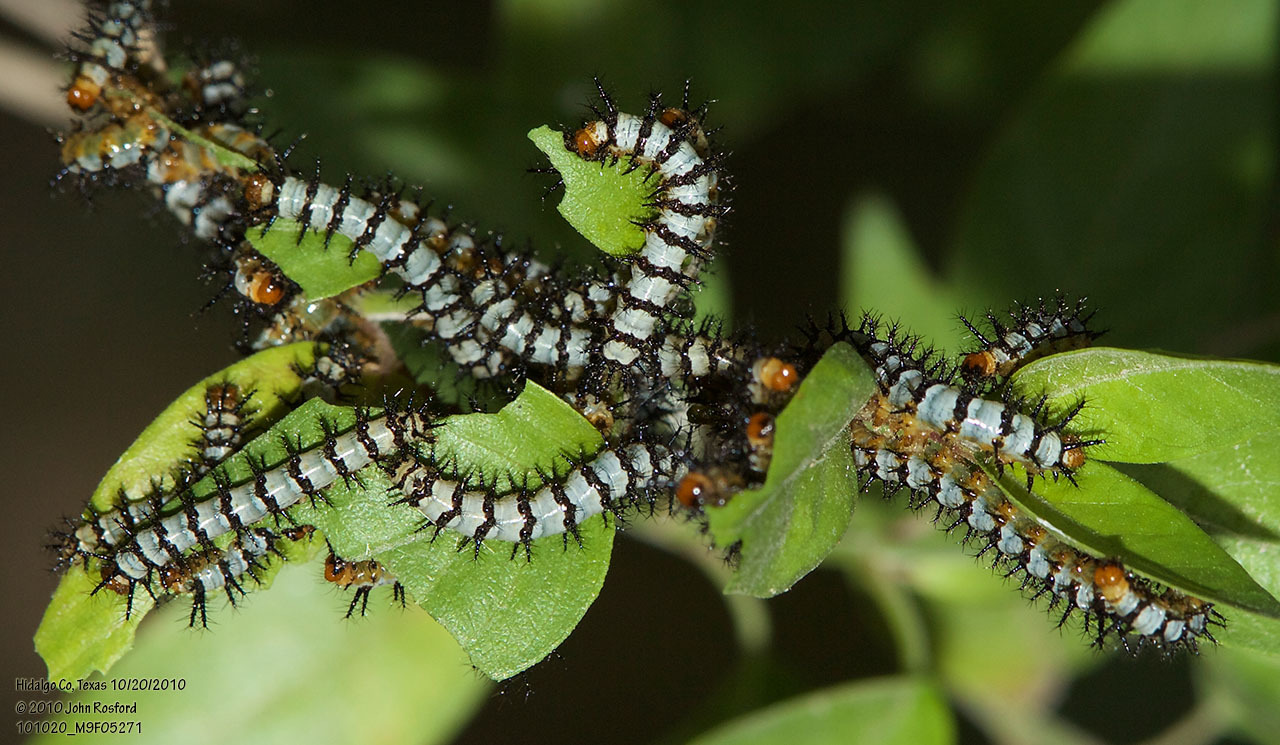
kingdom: Animalia
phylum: Arthropoda
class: Insecta
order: Lepidoptera
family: Nymphalidae
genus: Chlosyne
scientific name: Chlosyne janais
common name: Crimson patch
